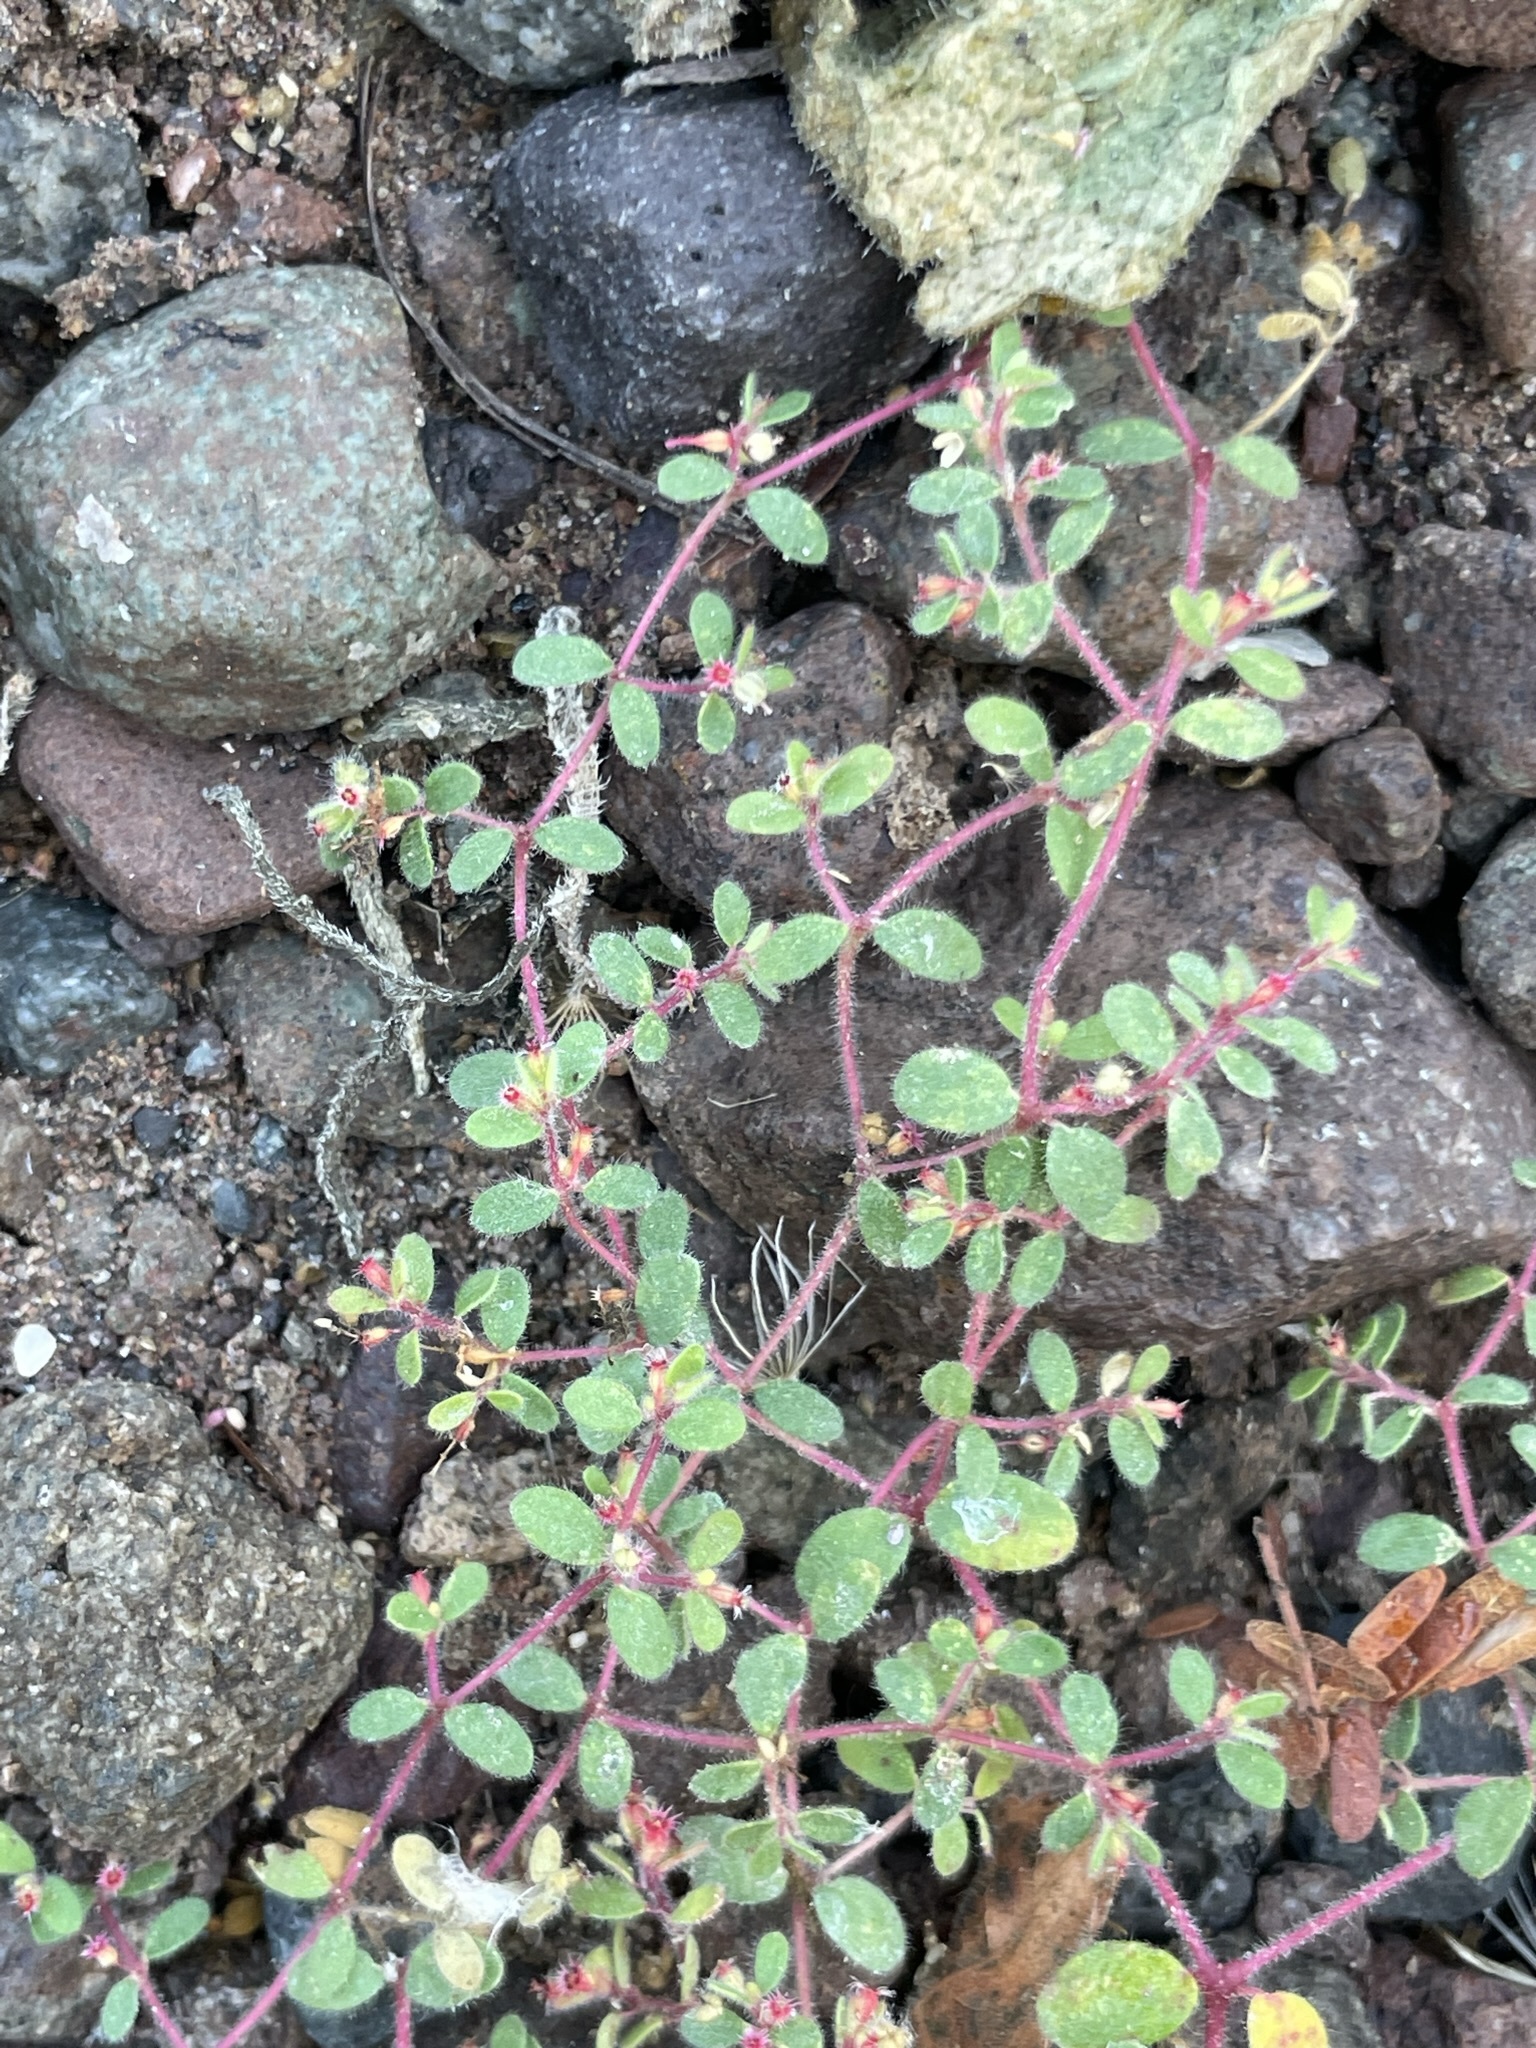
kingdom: Plantae
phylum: Tracheophyta
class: Magnoliopsida
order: Malpighiales
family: Euphorbiaceae
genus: Euphorbia
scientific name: Euphorbia setiloba
